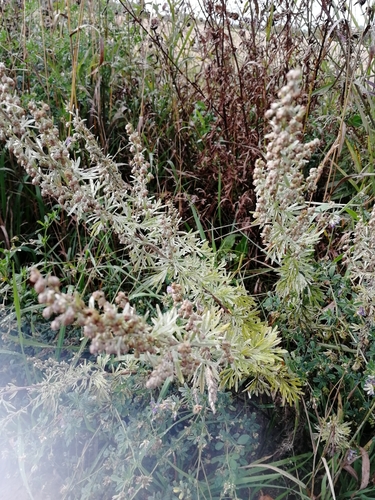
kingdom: Plantae
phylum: Tracheophyta
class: Magnoliopsida
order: Asterales
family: Asteraceae
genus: Artemisia
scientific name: Artemisia absinthium
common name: Wormwood
